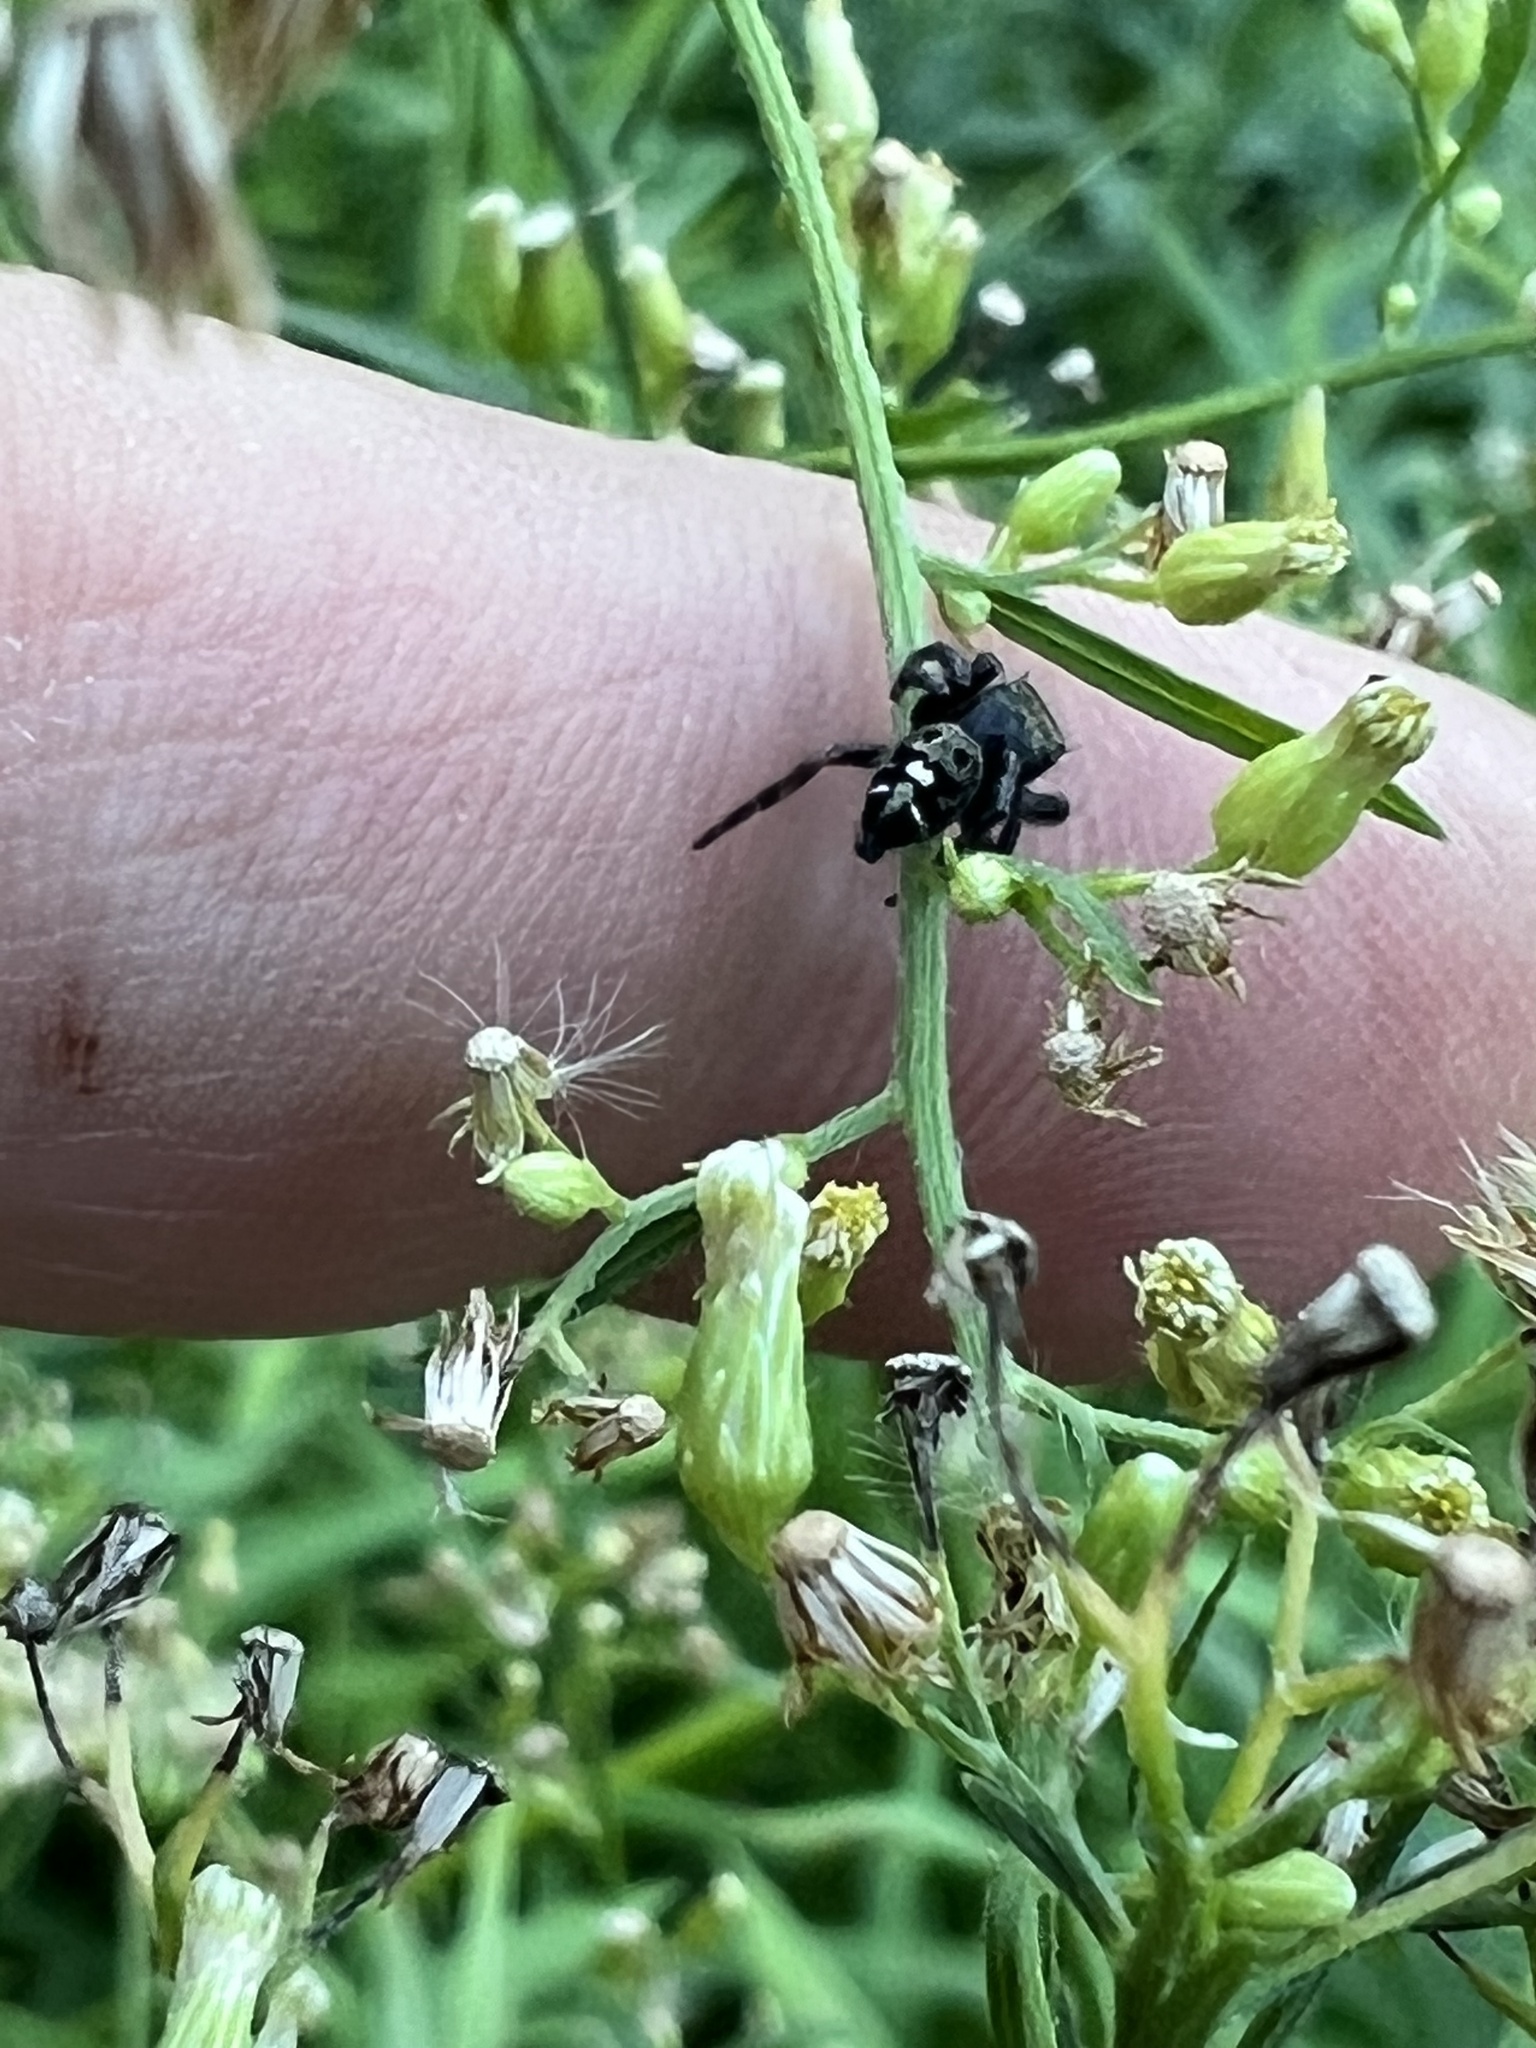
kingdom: Animalia
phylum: Arthropoda
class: Arachnida
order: Araneae
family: Salticidae
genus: Phidippus
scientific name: Phidippus audax
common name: Bold jumper
